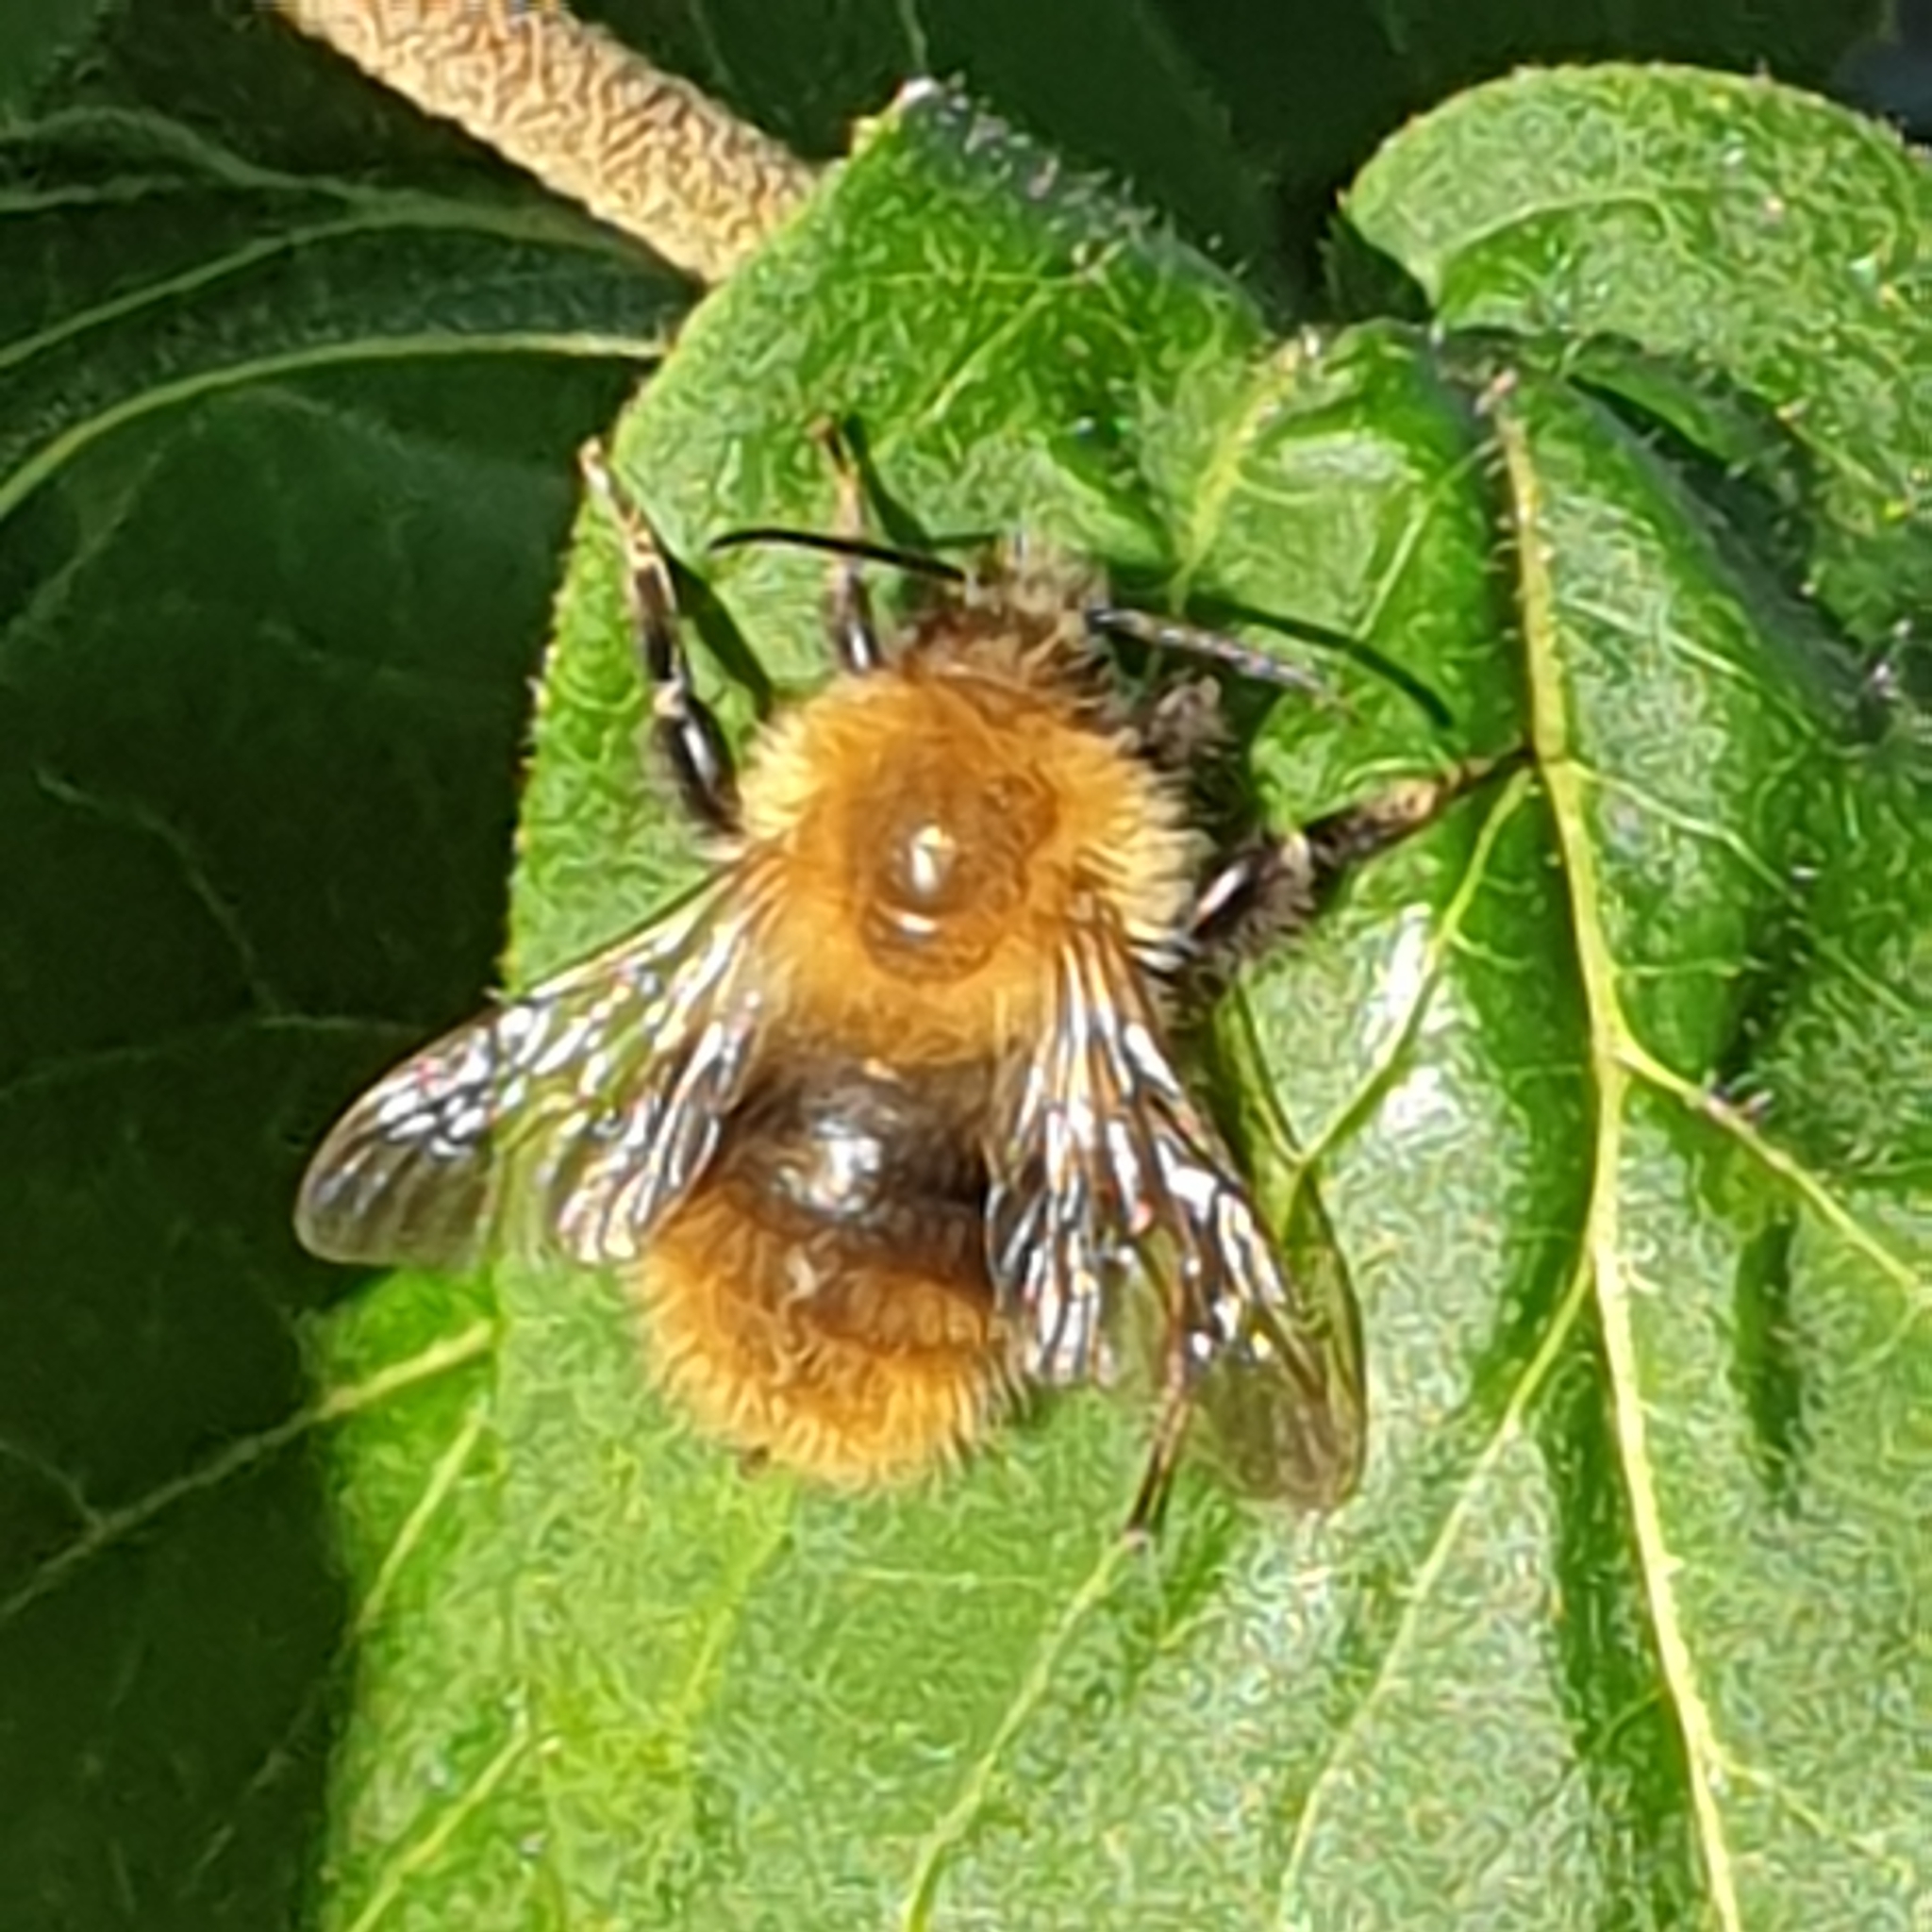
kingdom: Animalia
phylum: Arthropoda
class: Insecta
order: Hymenoptera
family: Apidae
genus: Bombus
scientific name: Bombus pascuorum
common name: Common carder bee
